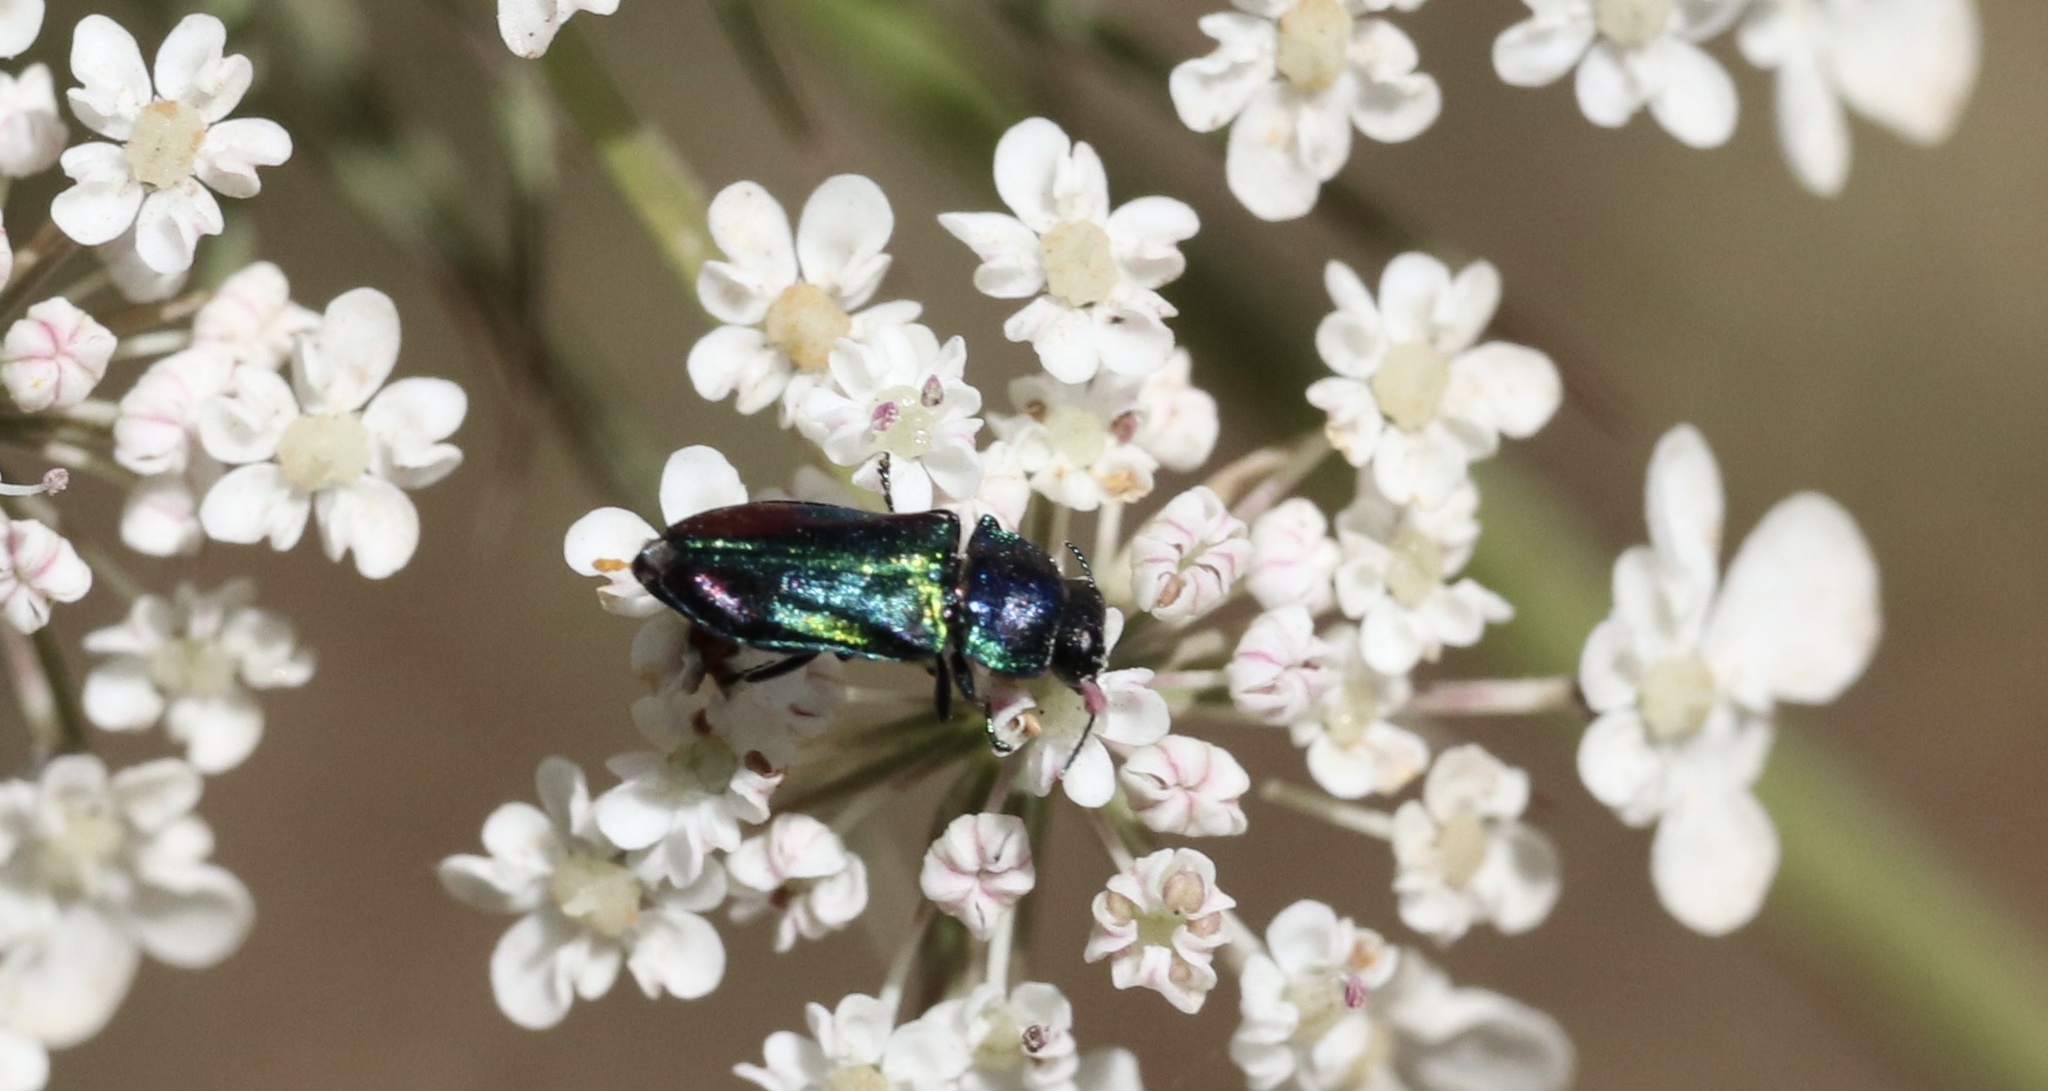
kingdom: Animalia
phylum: Arthropoda
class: Insecta
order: Coleoptera
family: Buprestidae
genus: Bilyaxia
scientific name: Bilyaxia concinna
